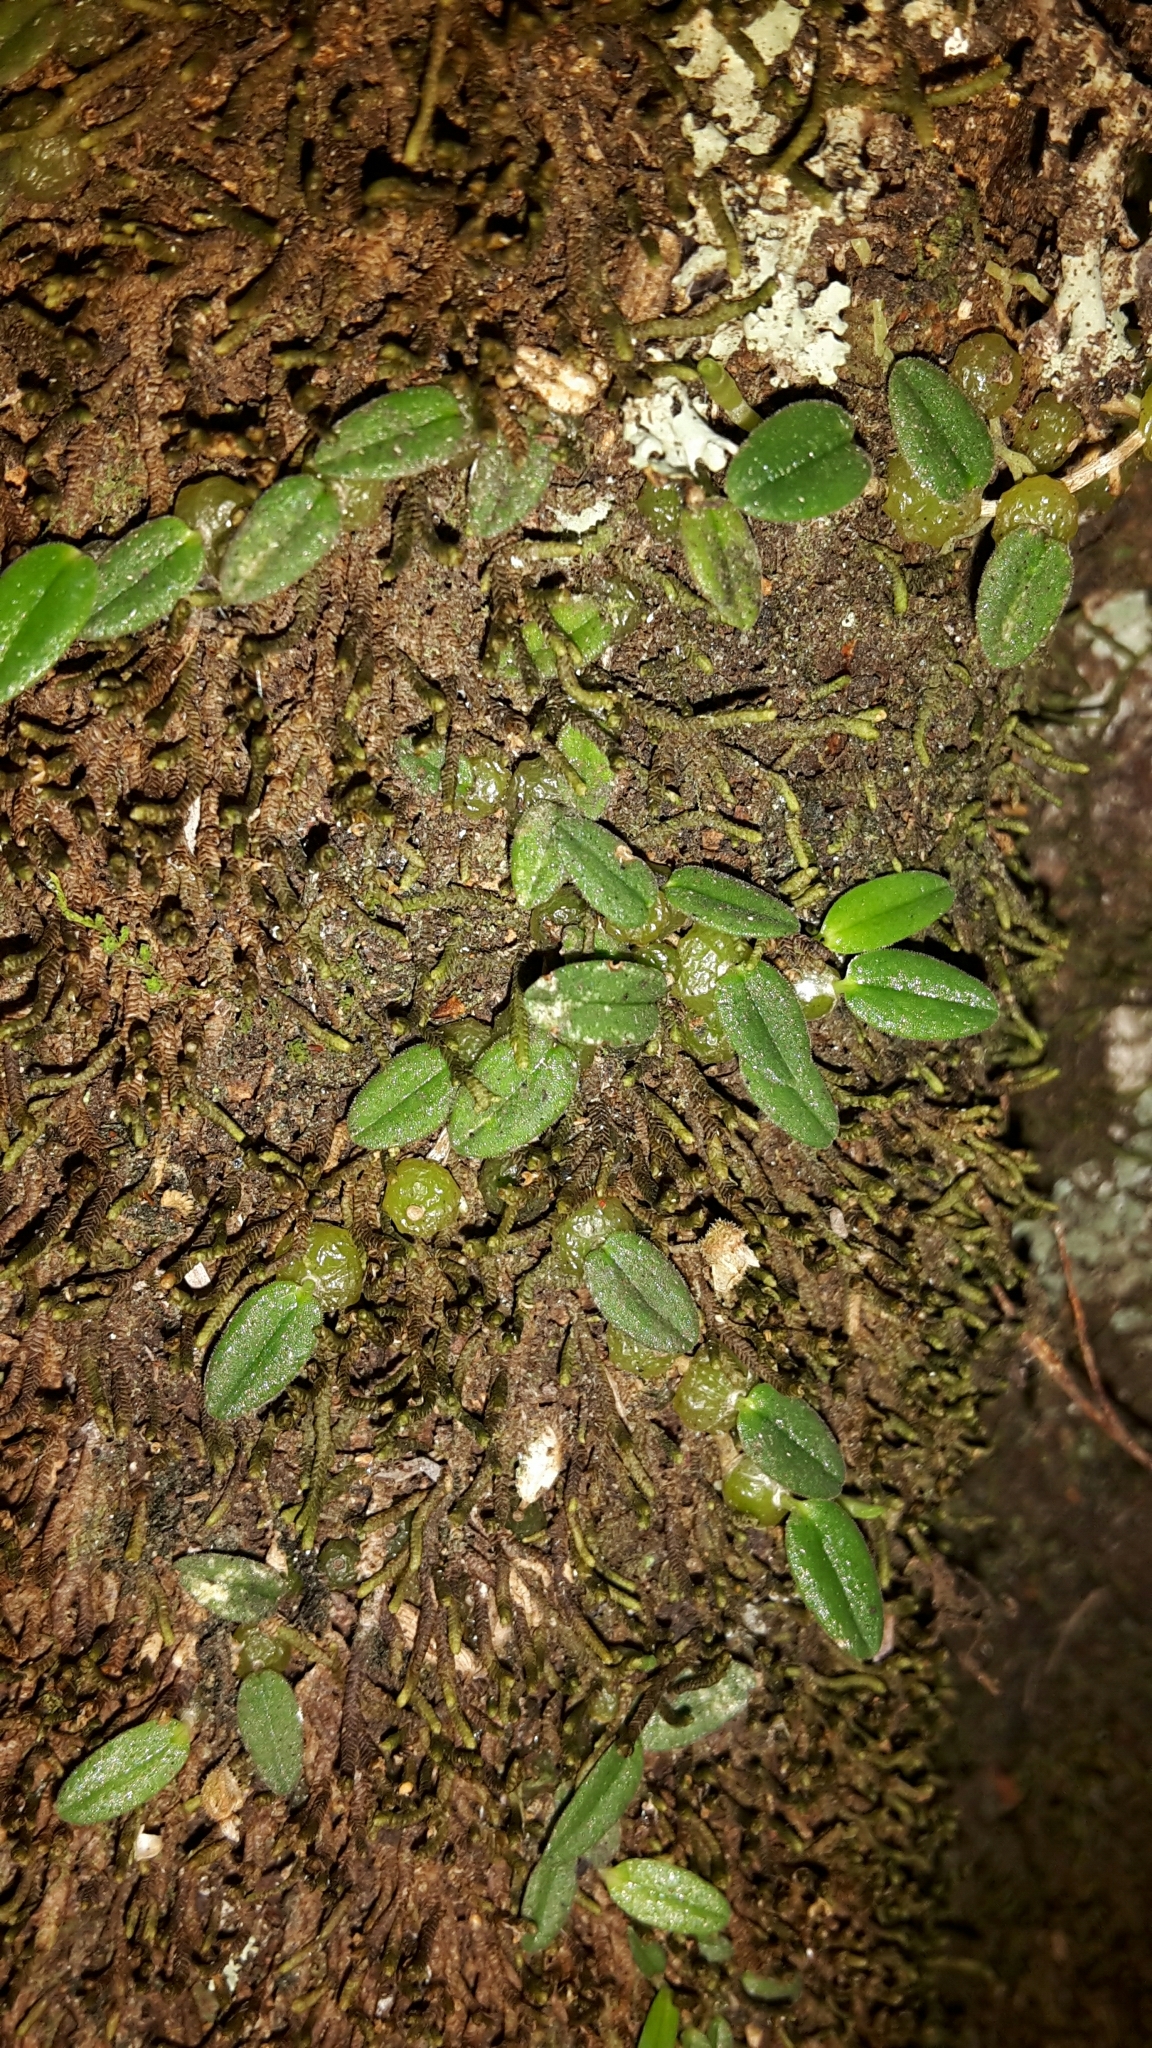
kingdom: Plantae
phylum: Tracheophyta
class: Liliopsida
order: Asparagales
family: Orchidaceae
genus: Bulbophyllum
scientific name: Bulbophyllum pygmaeum
